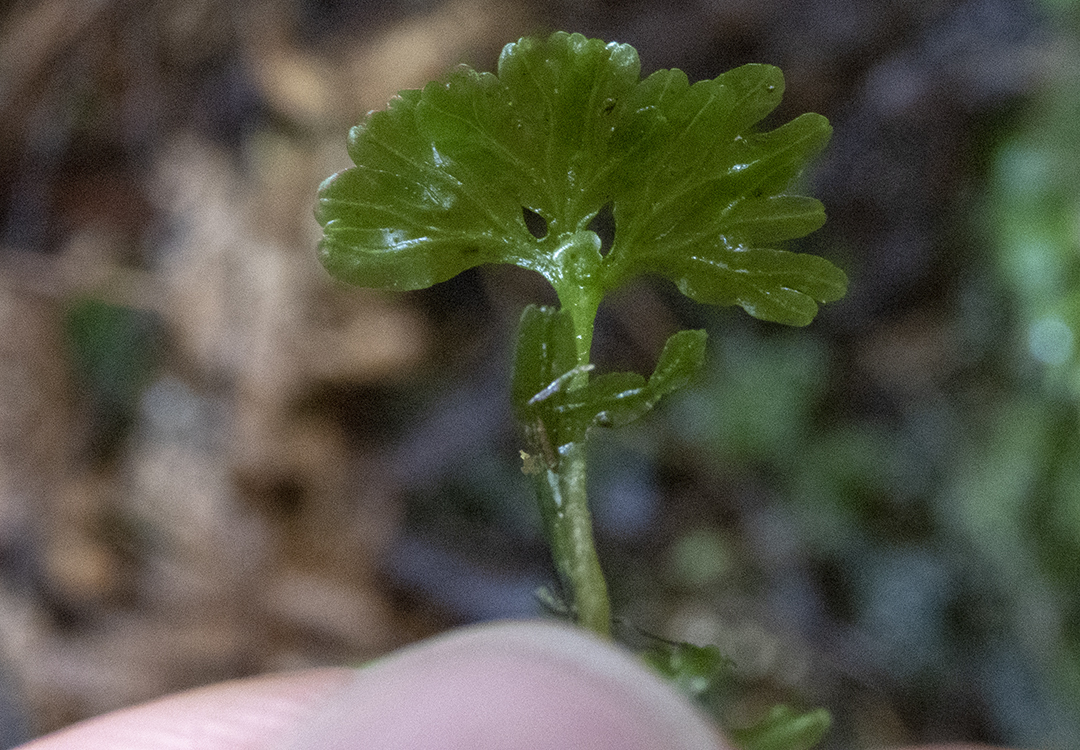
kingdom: Plantae
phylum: Marchantiophyta
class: Jungermanniopsida
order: Pallaviciniales
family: Hymenophytaceae
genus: Hymenophyton
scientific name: Hymenophyton flabellatum
